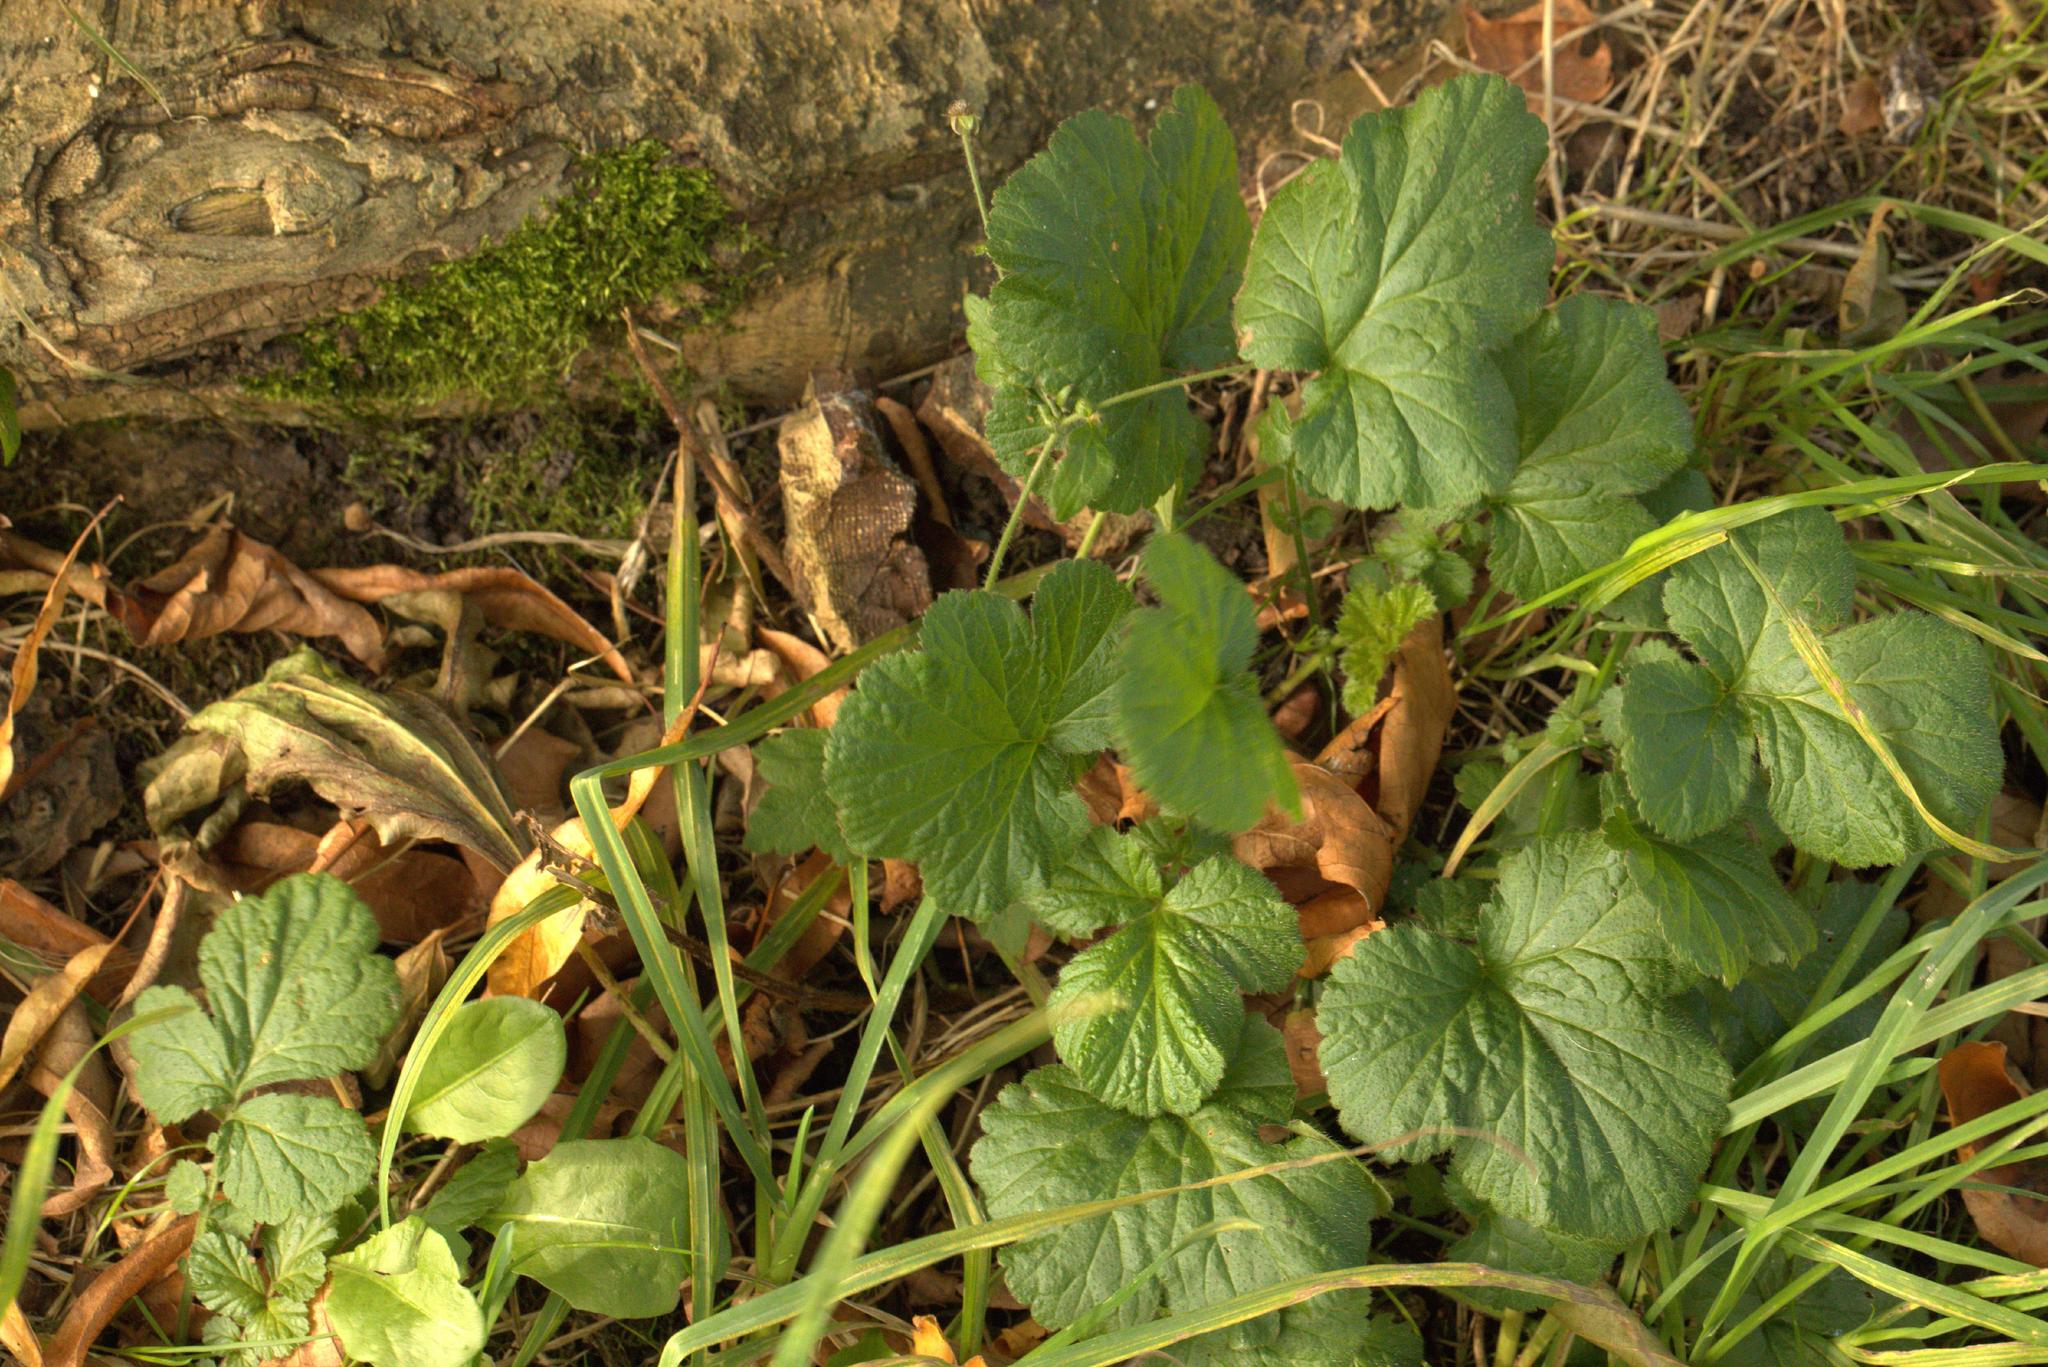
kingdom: Plantae
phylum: Tracheophyta
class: Magnoliopsida
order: Rosales
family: Rosaceae
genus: Geum
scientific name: Geum urbanum
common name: Wood avens
